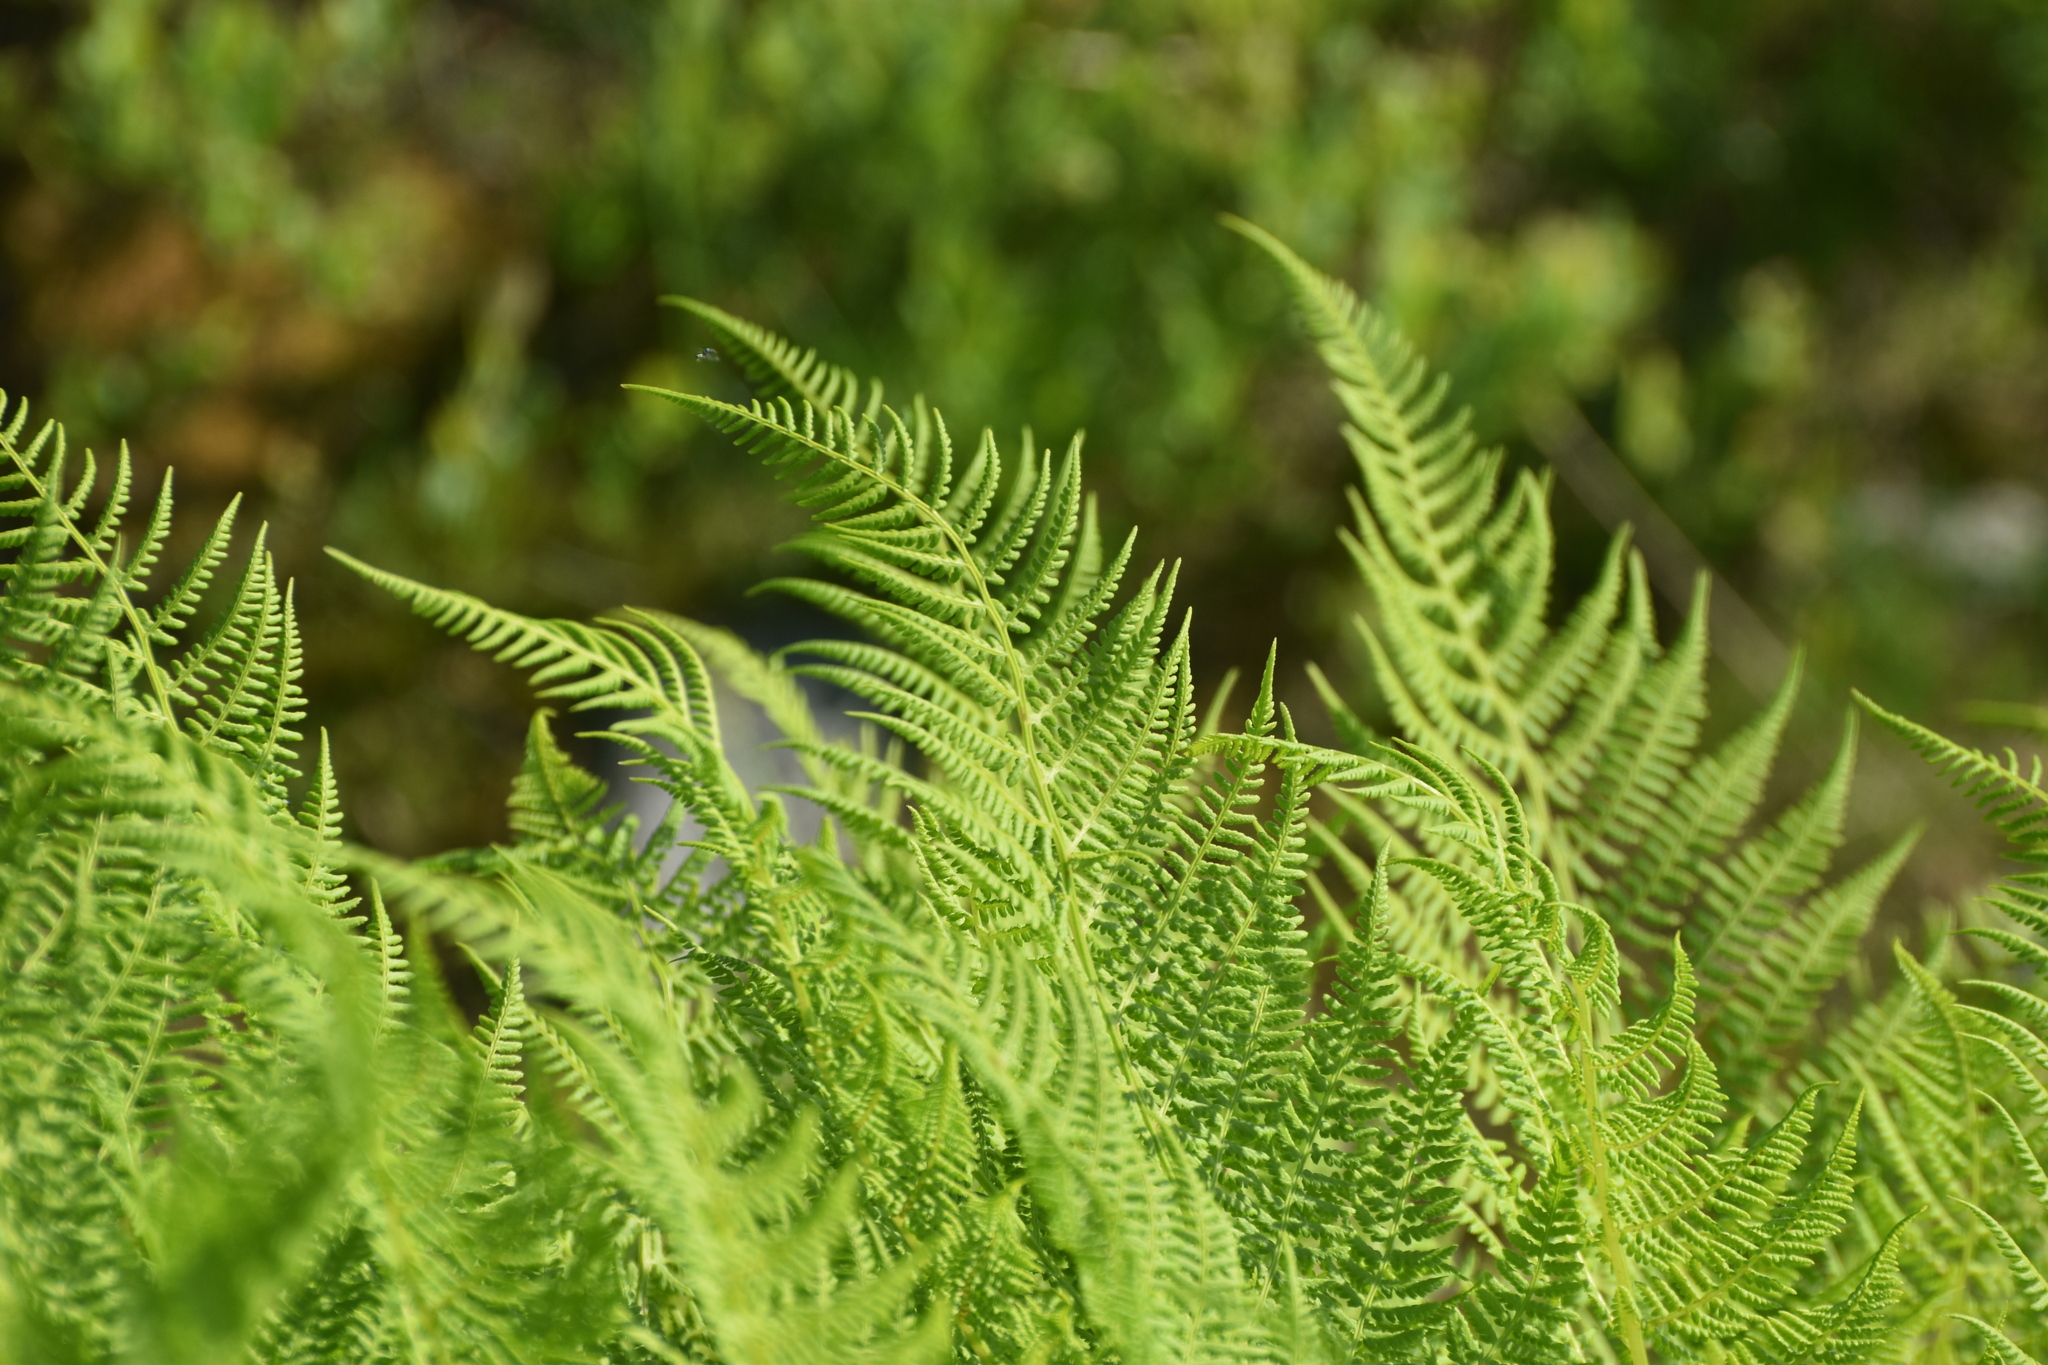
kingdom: Plantae
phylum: Tracheophyta
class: Polypodiopsida
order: Polypodiales
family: Athyriaceae
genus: Pseudathyrium
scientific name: Pseudathyrium alpestre
